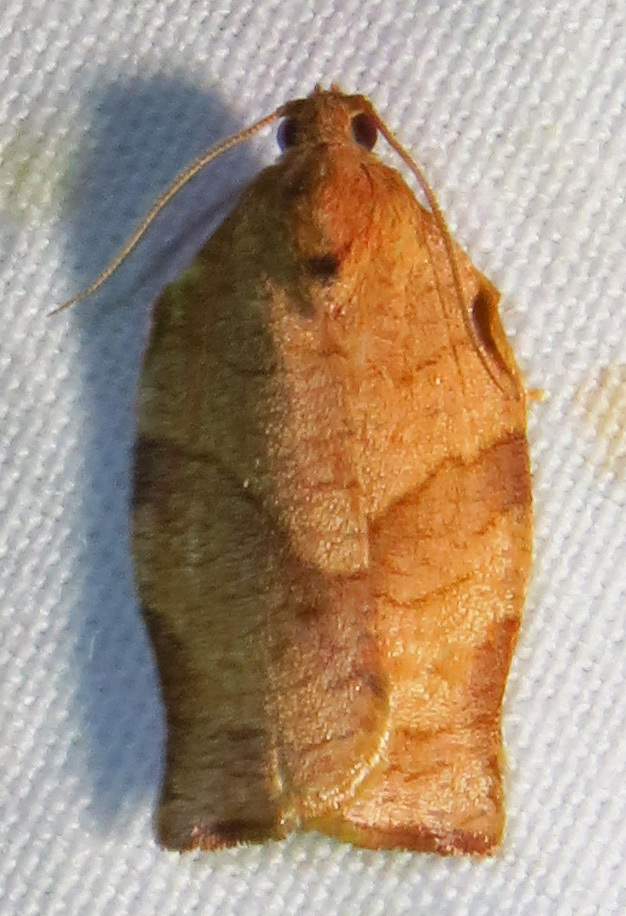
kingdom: Animalia
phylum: Arthropoda
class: Insecta
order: Lepidoptera
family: Tortricidae
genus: Choristoneura
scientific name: Choristoneura rosaceana
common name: Oblique-banded leafroller moth
